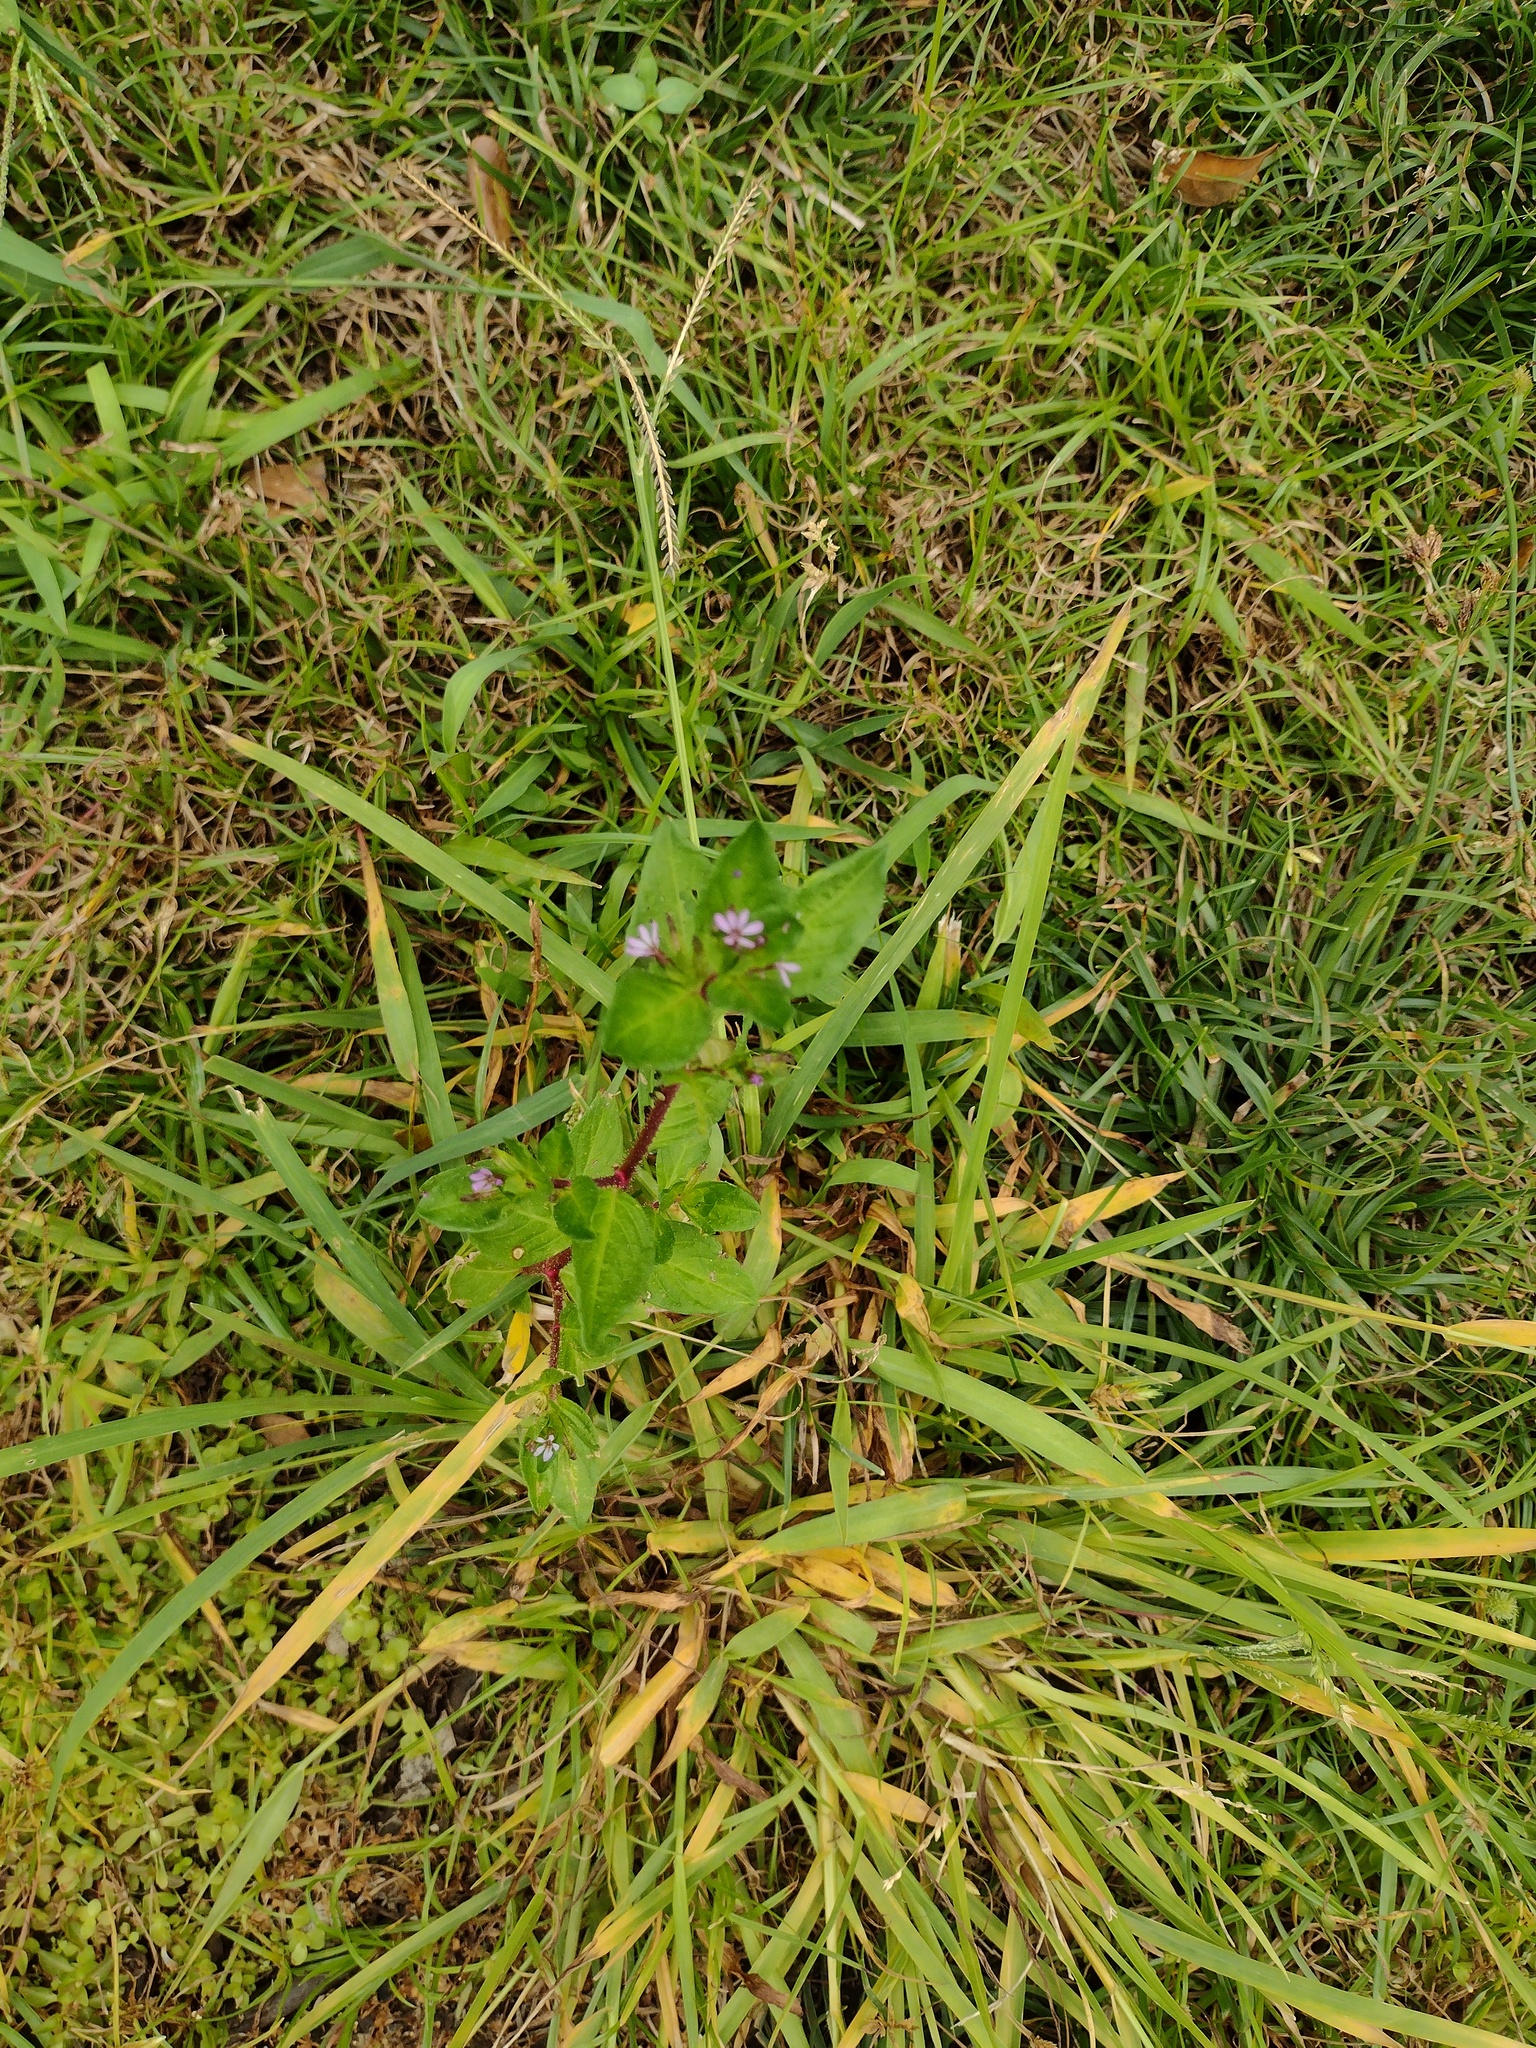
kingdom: Plantae
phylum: Tracheophyta
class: Magnoliopsida
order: Myrtales
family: Lythraceae
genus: Cuphea
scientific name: Cuphea carthagenensis
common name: Colombian waxweed
